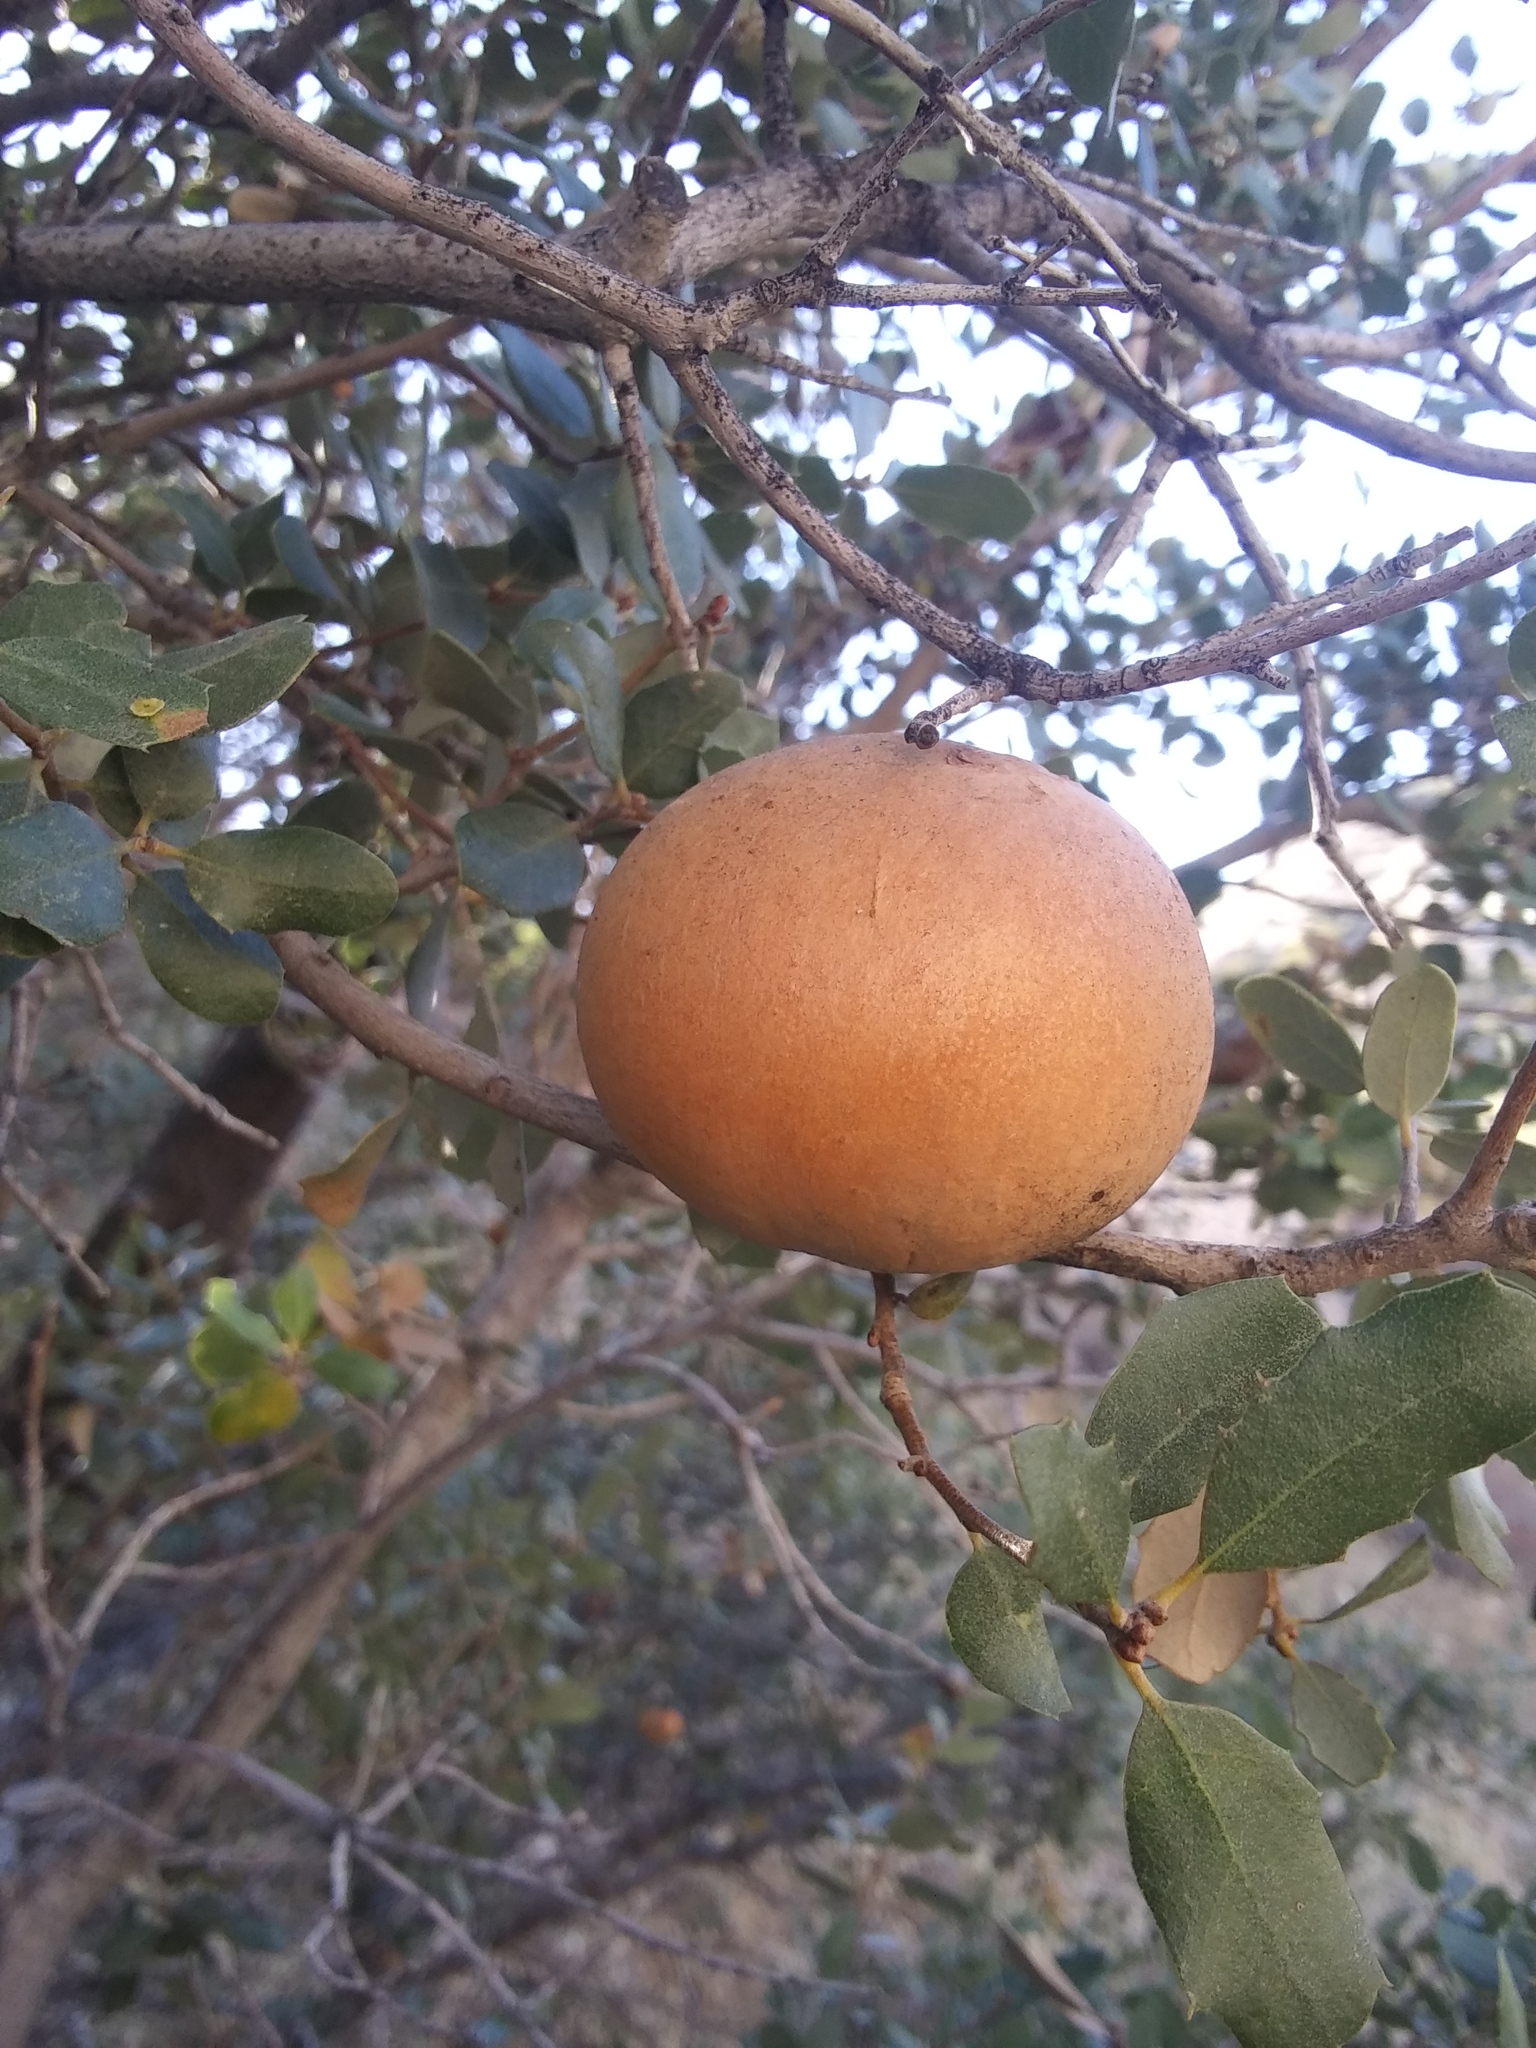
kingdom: Animalia
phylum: Arthropoda
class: Insecta
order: Hymenoptera
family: Cynipidae
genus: Andricus
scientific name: Andricus quercuscalifornicus
